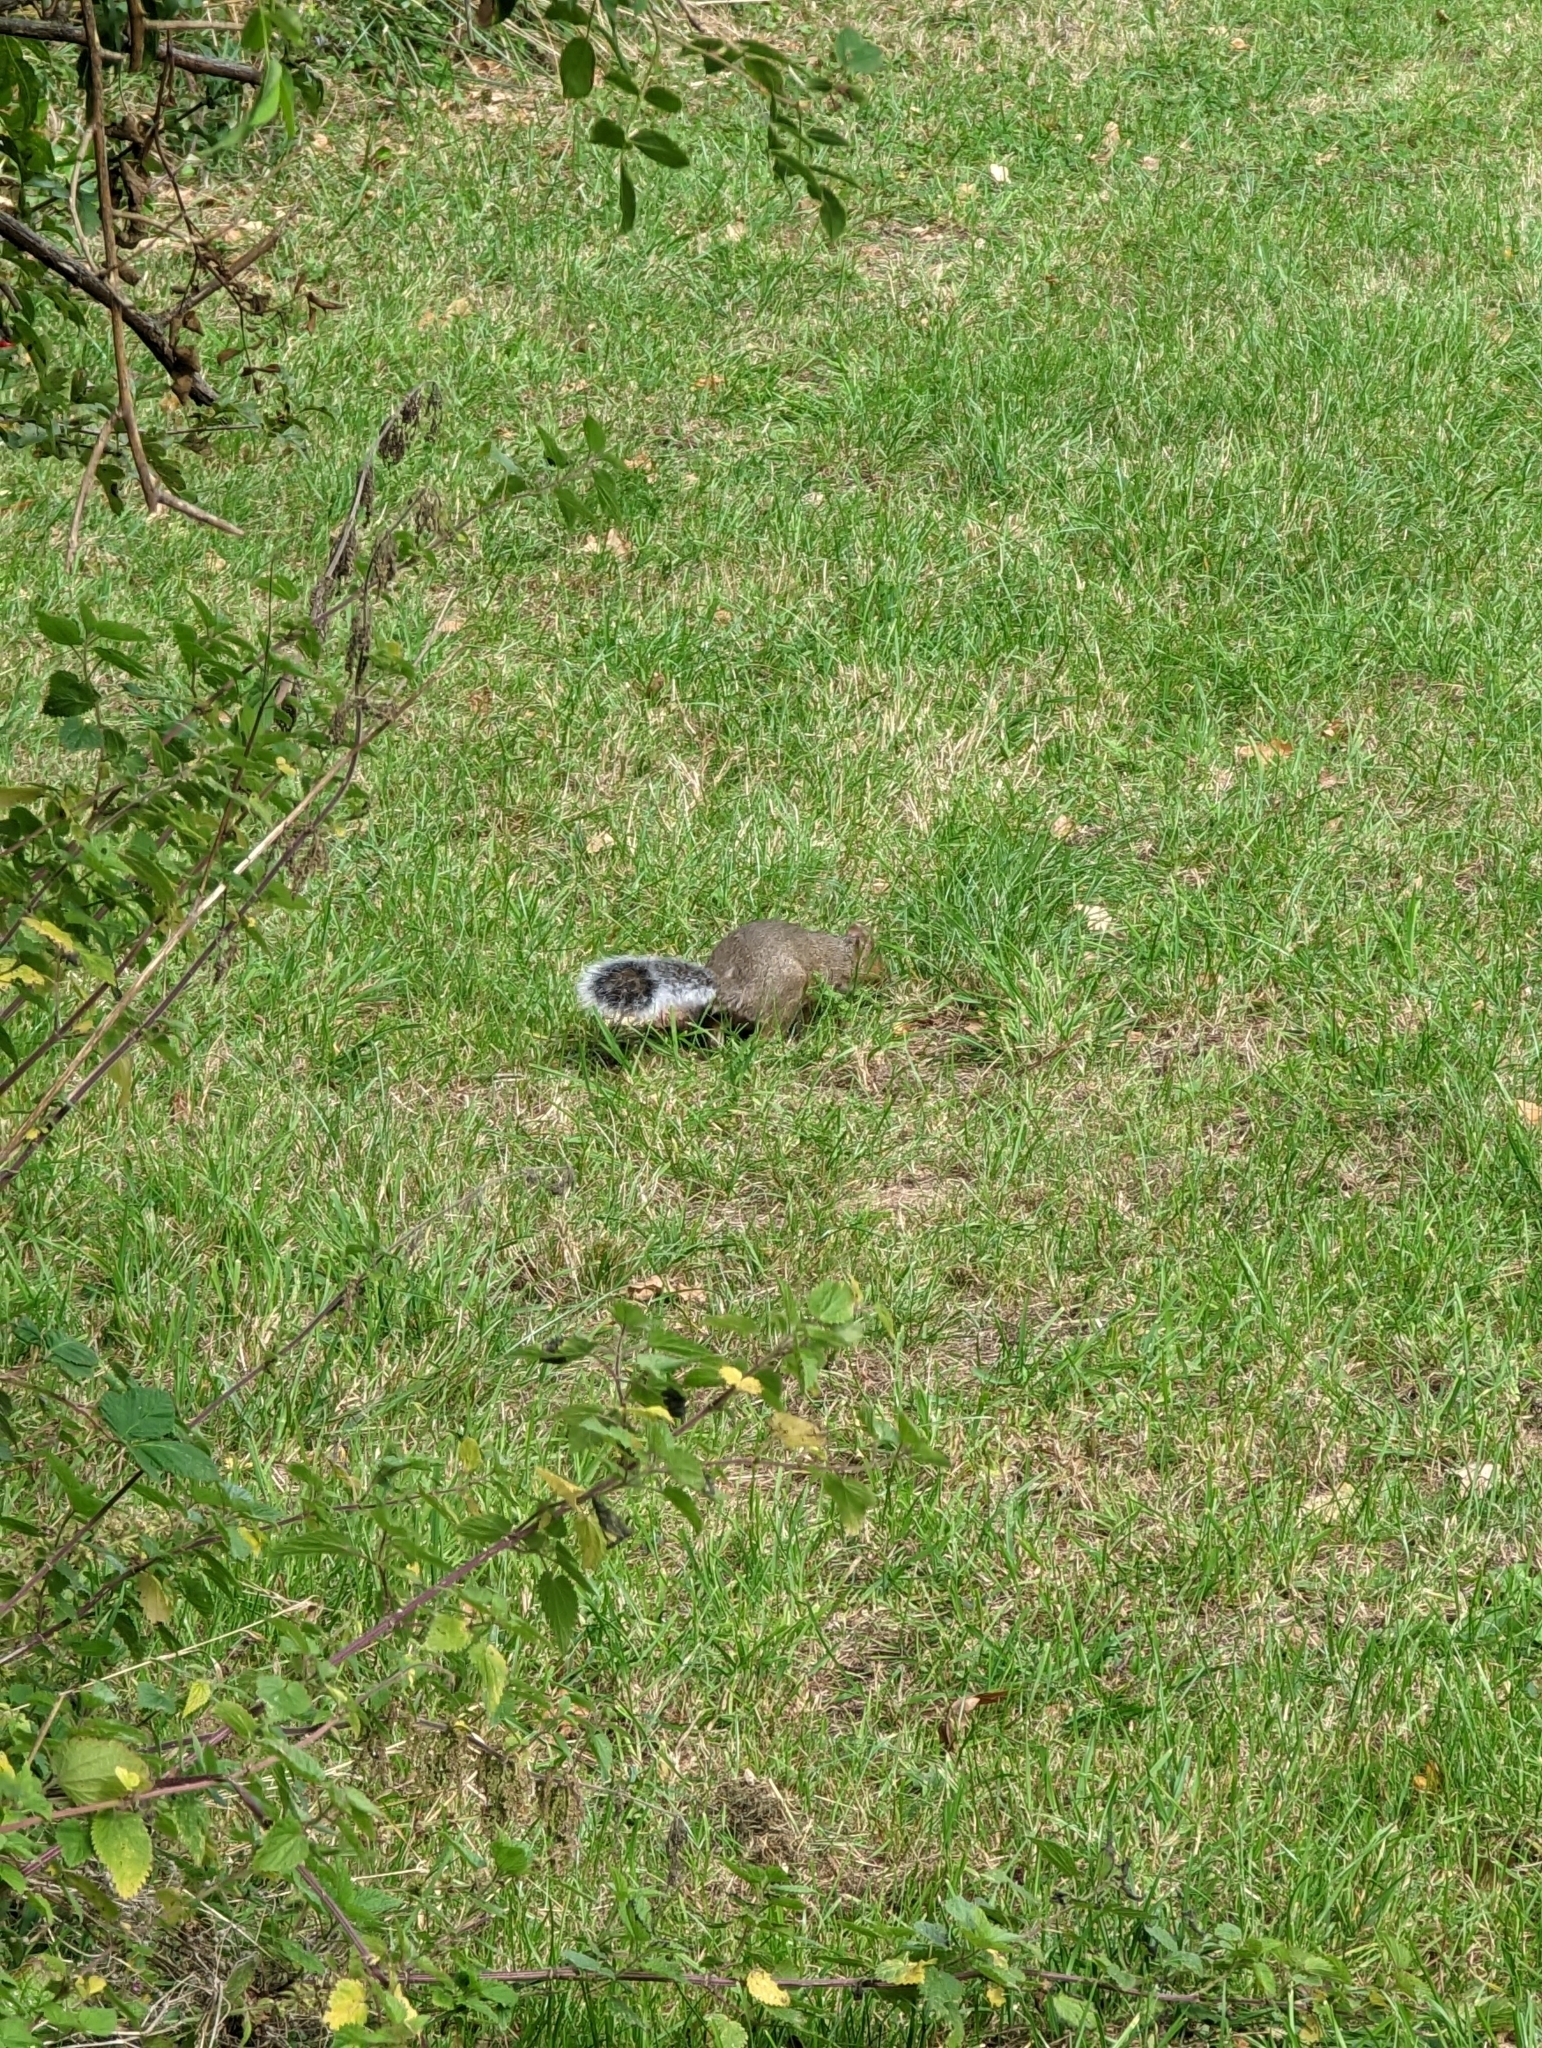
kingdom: Animalia
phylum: Chordata
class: Mammalia
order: Rodentia
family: Sciuridae
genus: Sciurus
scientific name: Sciurus carolinensis
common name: Eastern gray squirrel
